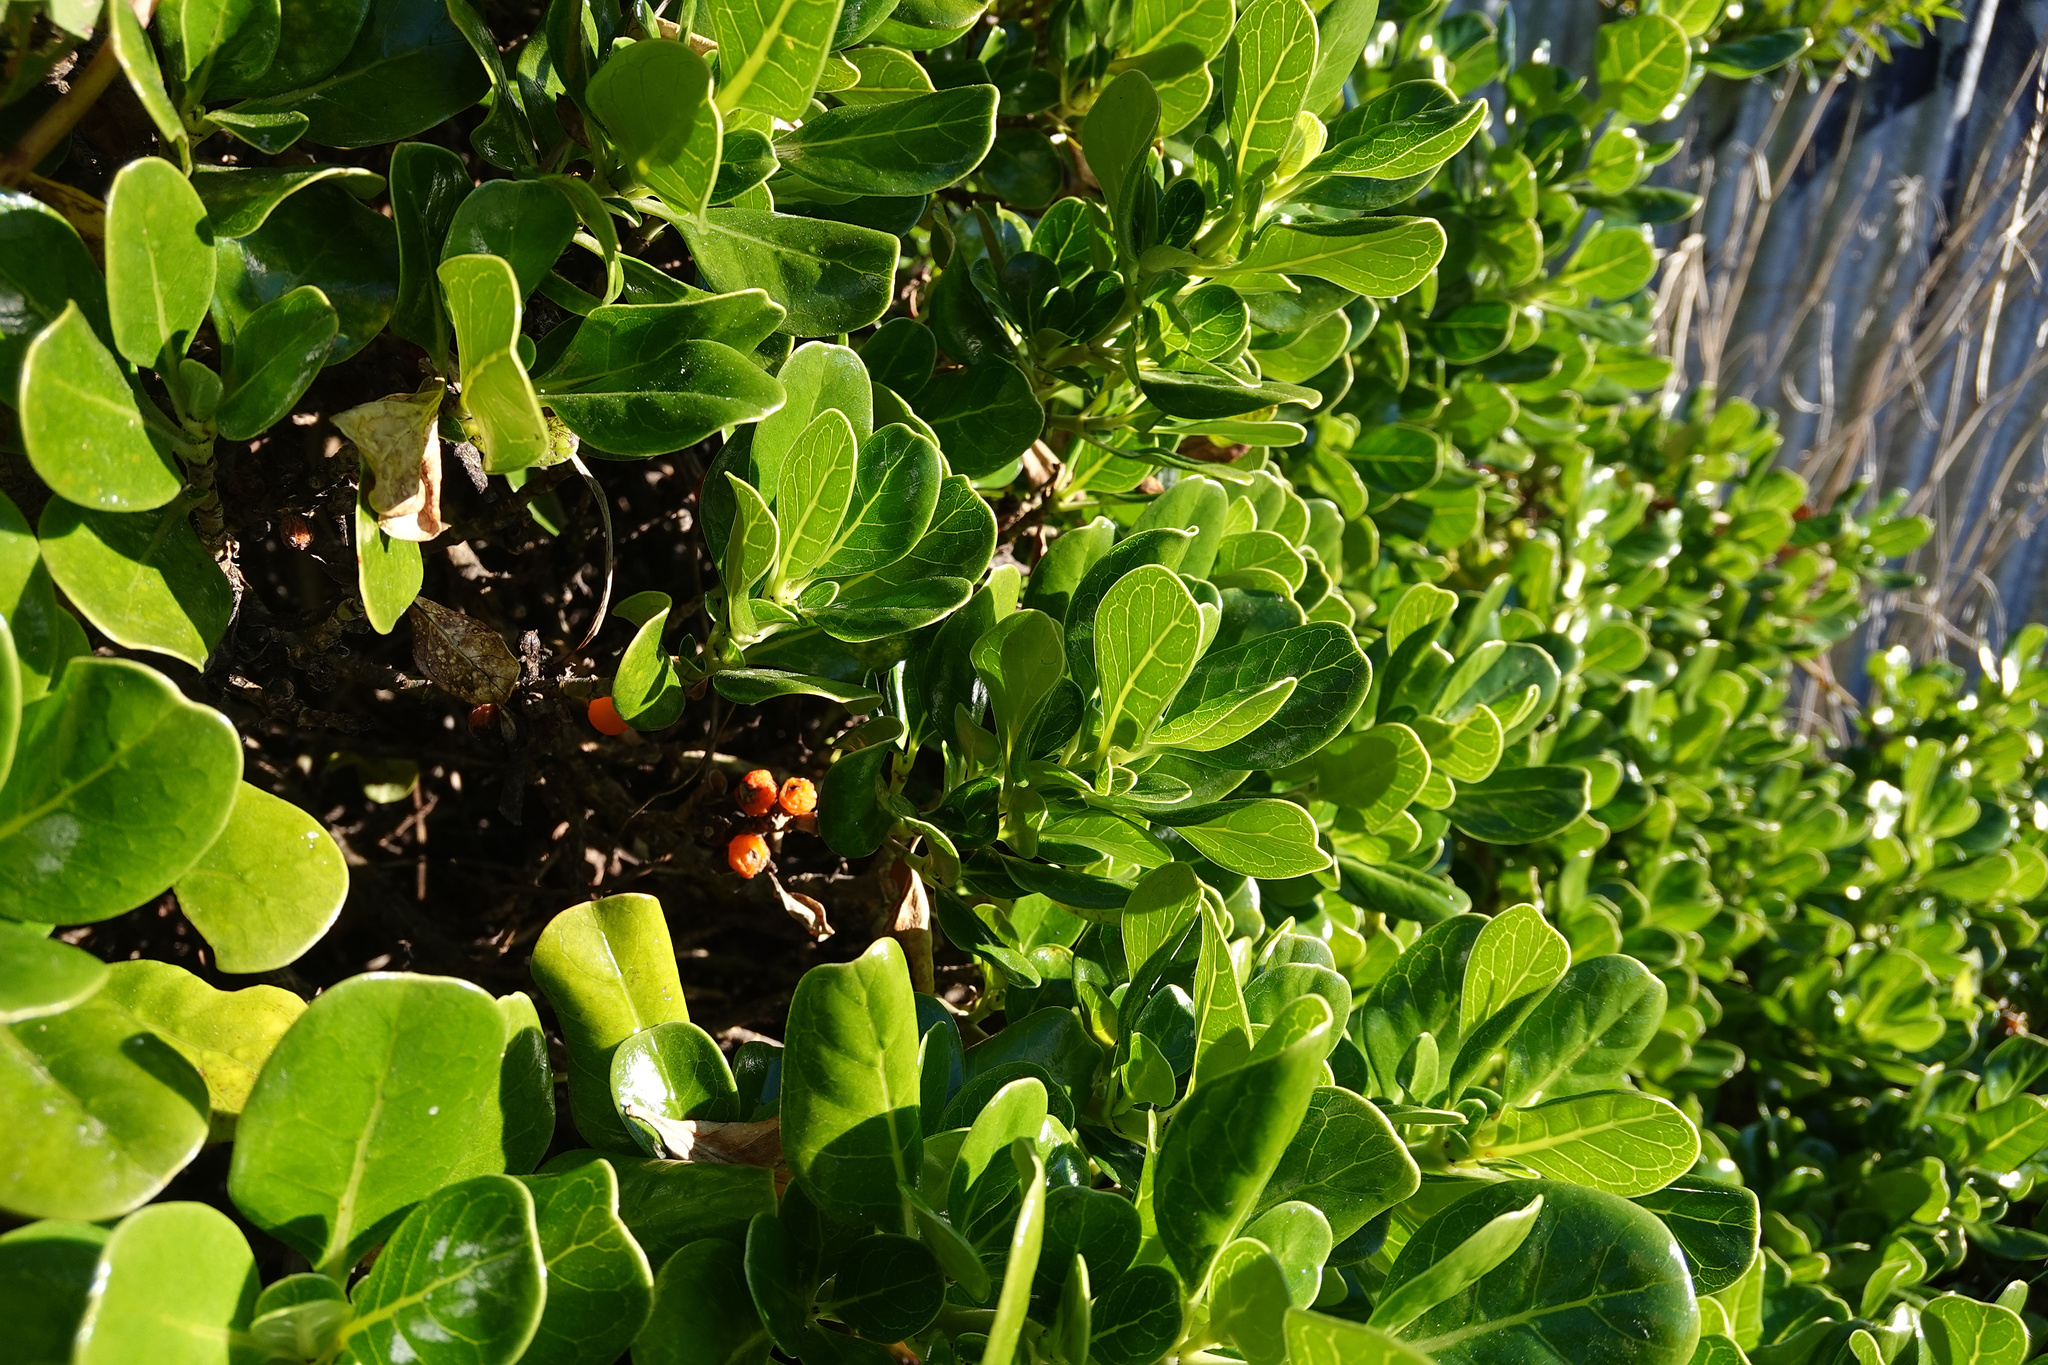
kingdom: Plantae
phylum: Tracheophyta
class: Magnoliopsida
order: Gentianales
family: Rubiaceae
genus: Coprosma
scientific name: Coprosma repens
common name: Tree bedstraw
